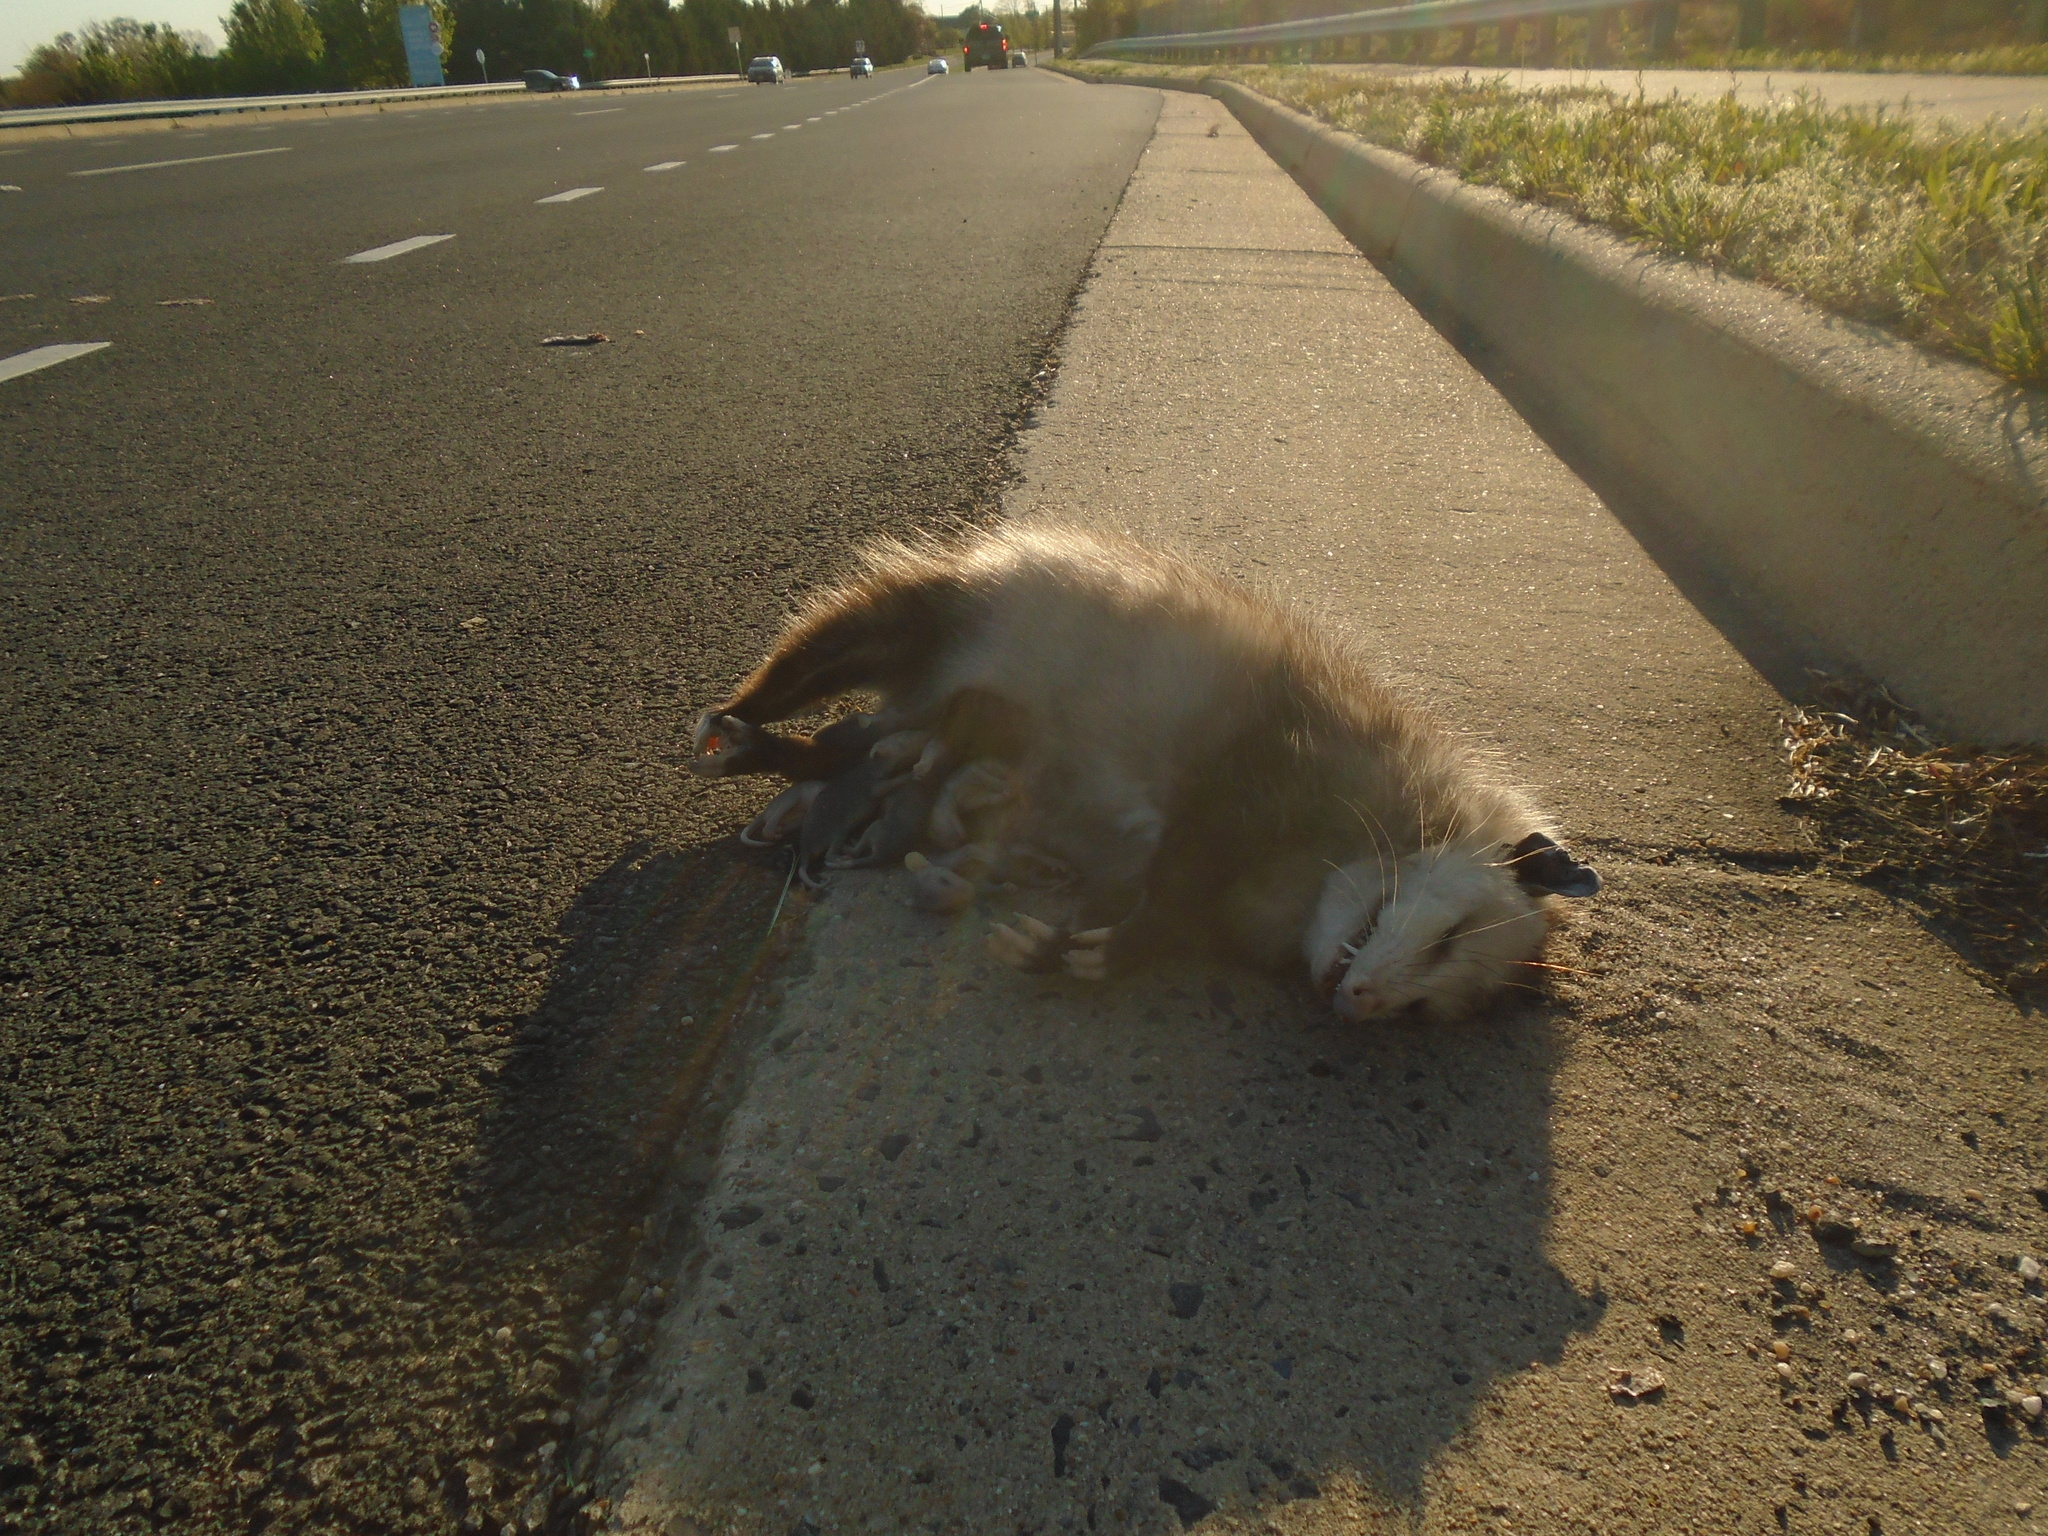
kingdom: Animalia
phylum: Chordata
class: Mammalia
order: Didelphimorphia
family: Didelphidae
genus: Didelphis
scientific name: Didelphis virginiana
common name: Virginia opossum
